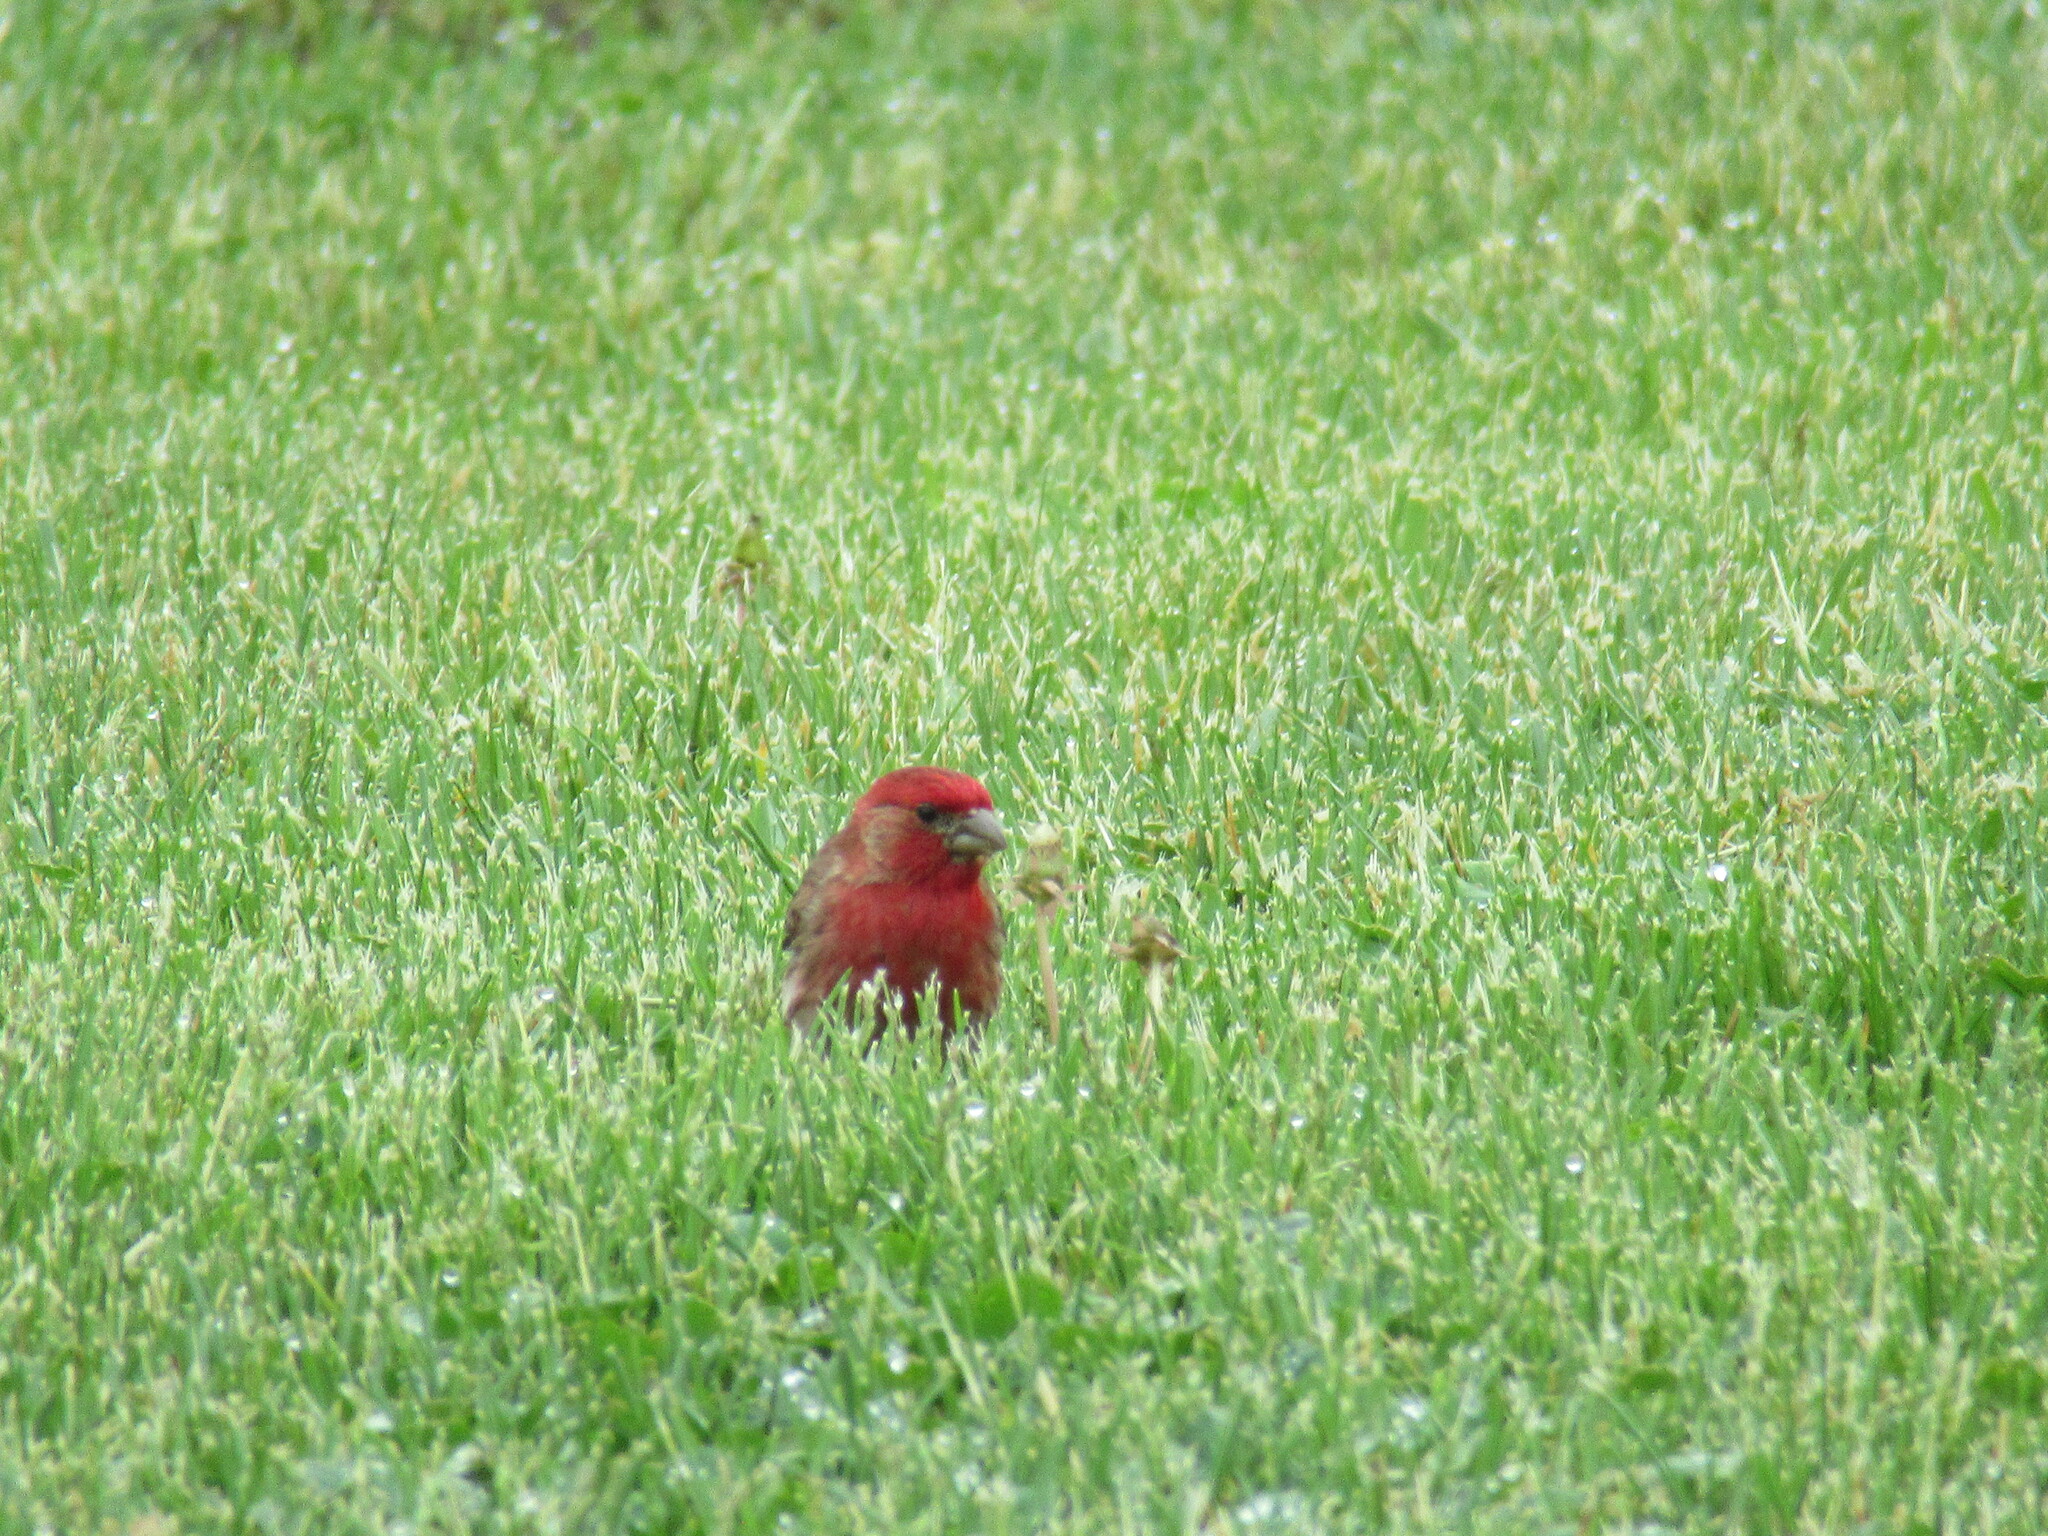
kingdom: Animalia
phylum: Chordata
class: Aves
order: Passeriformes
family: Fringillidae
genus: Haemorhous
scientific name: Haemorhous mexicanus
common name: House finch
